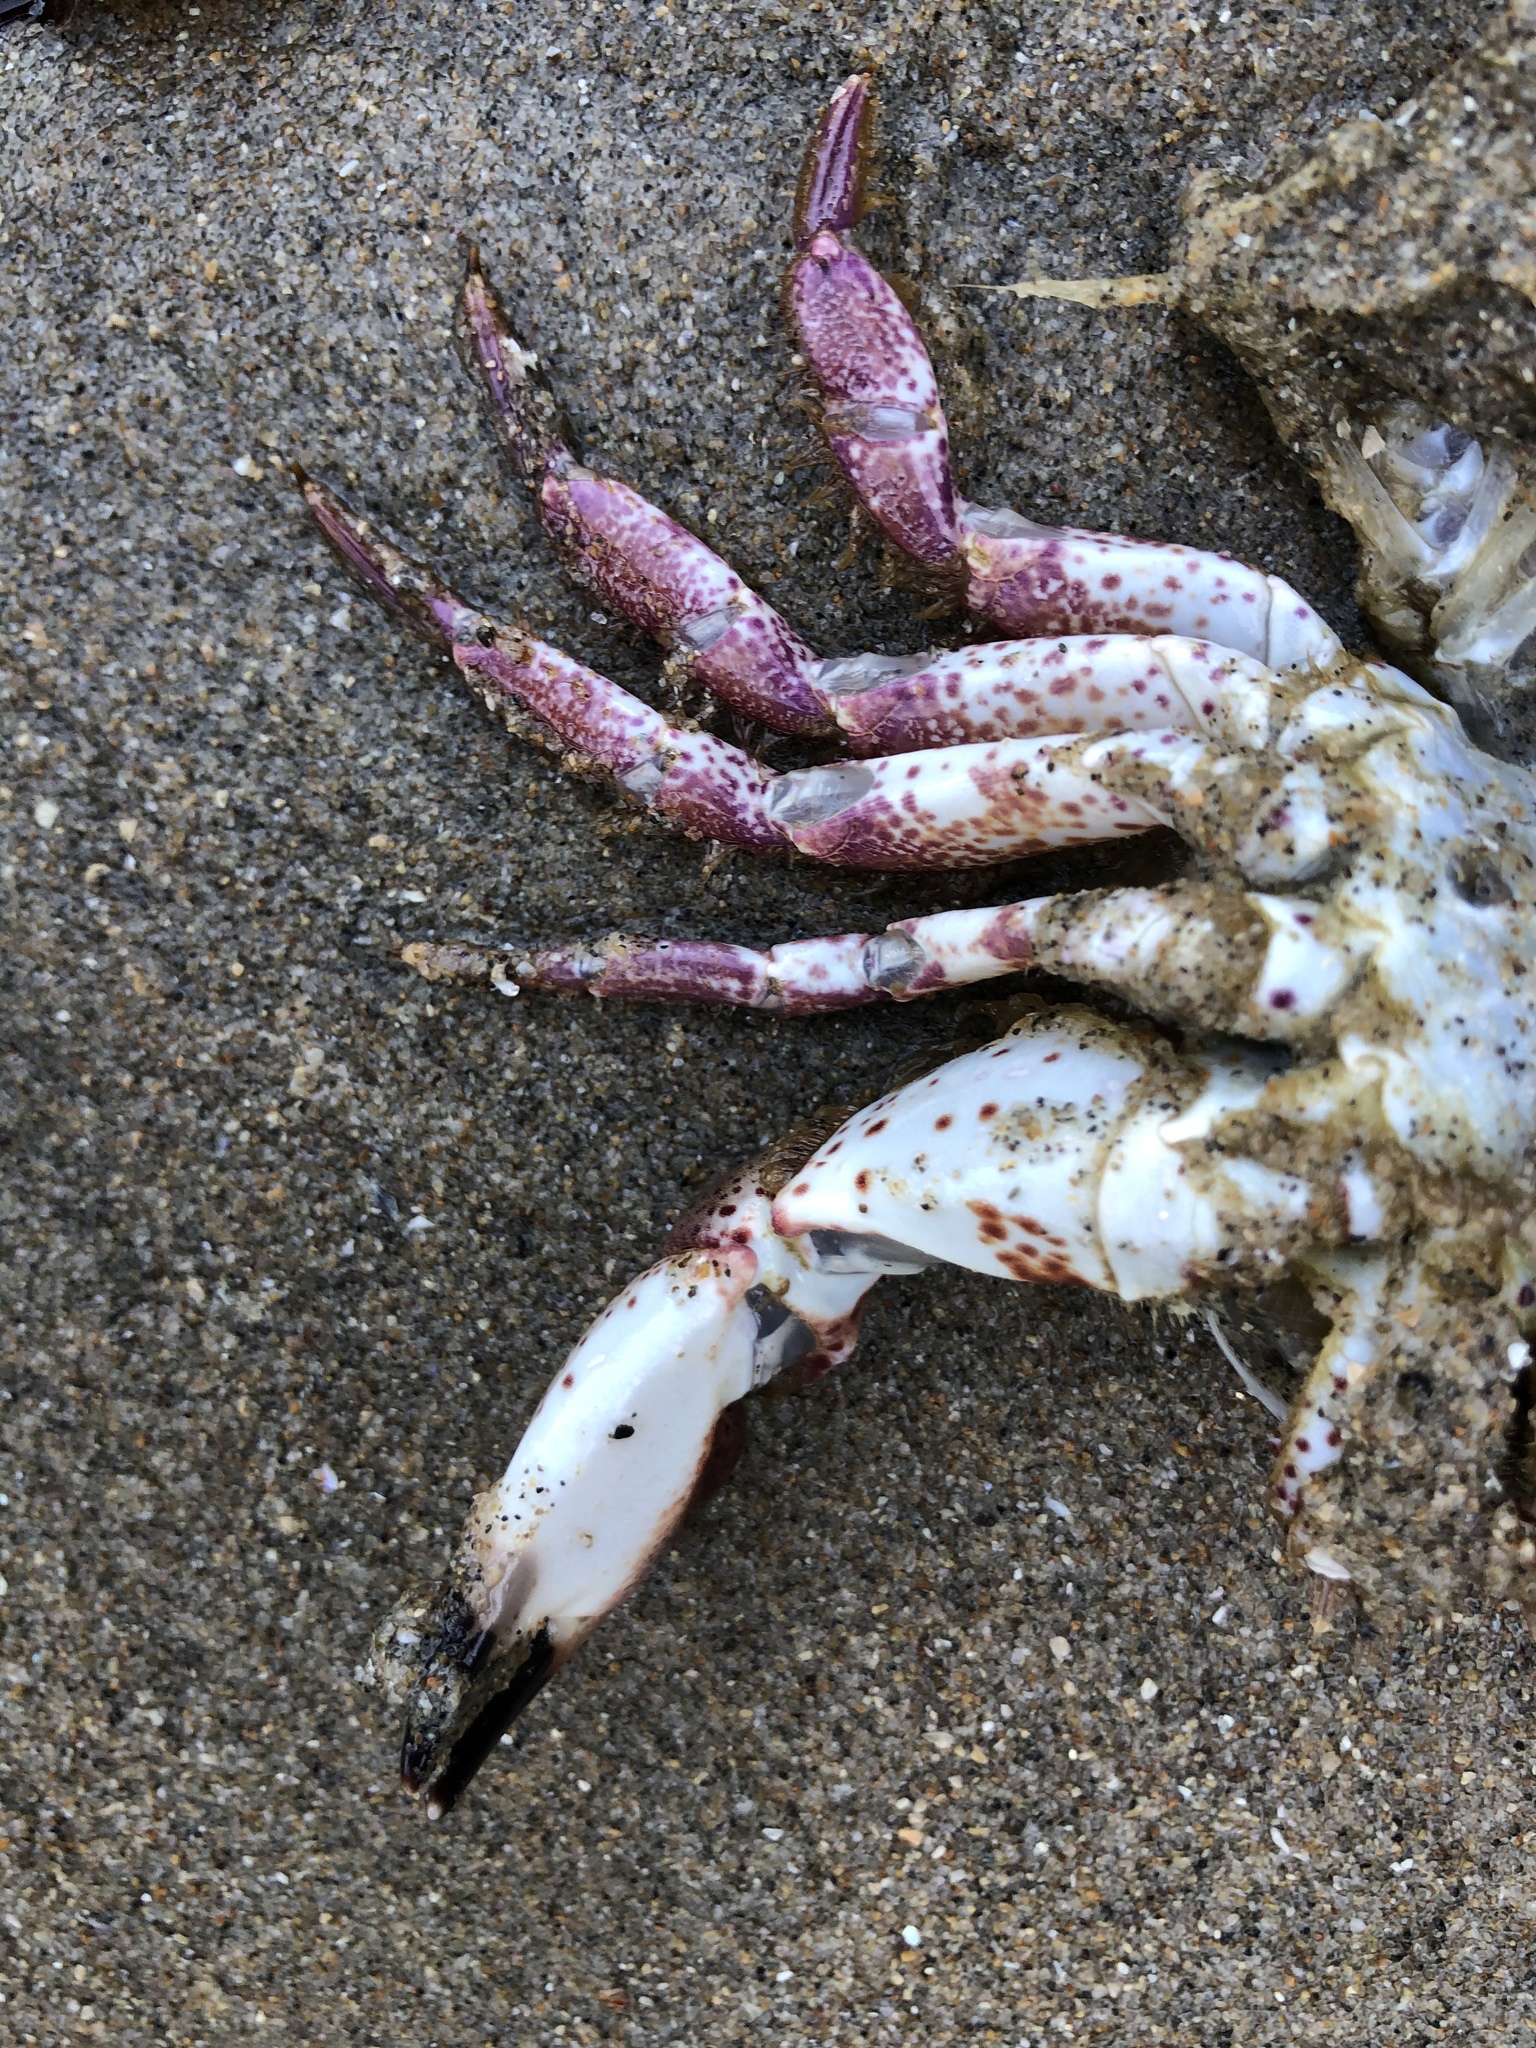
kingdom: Animalia
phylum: Arthropoda
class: Malacostraca
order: Decapoda
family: Cancridae
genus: Romaleon
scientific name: Romaleon antennarium
